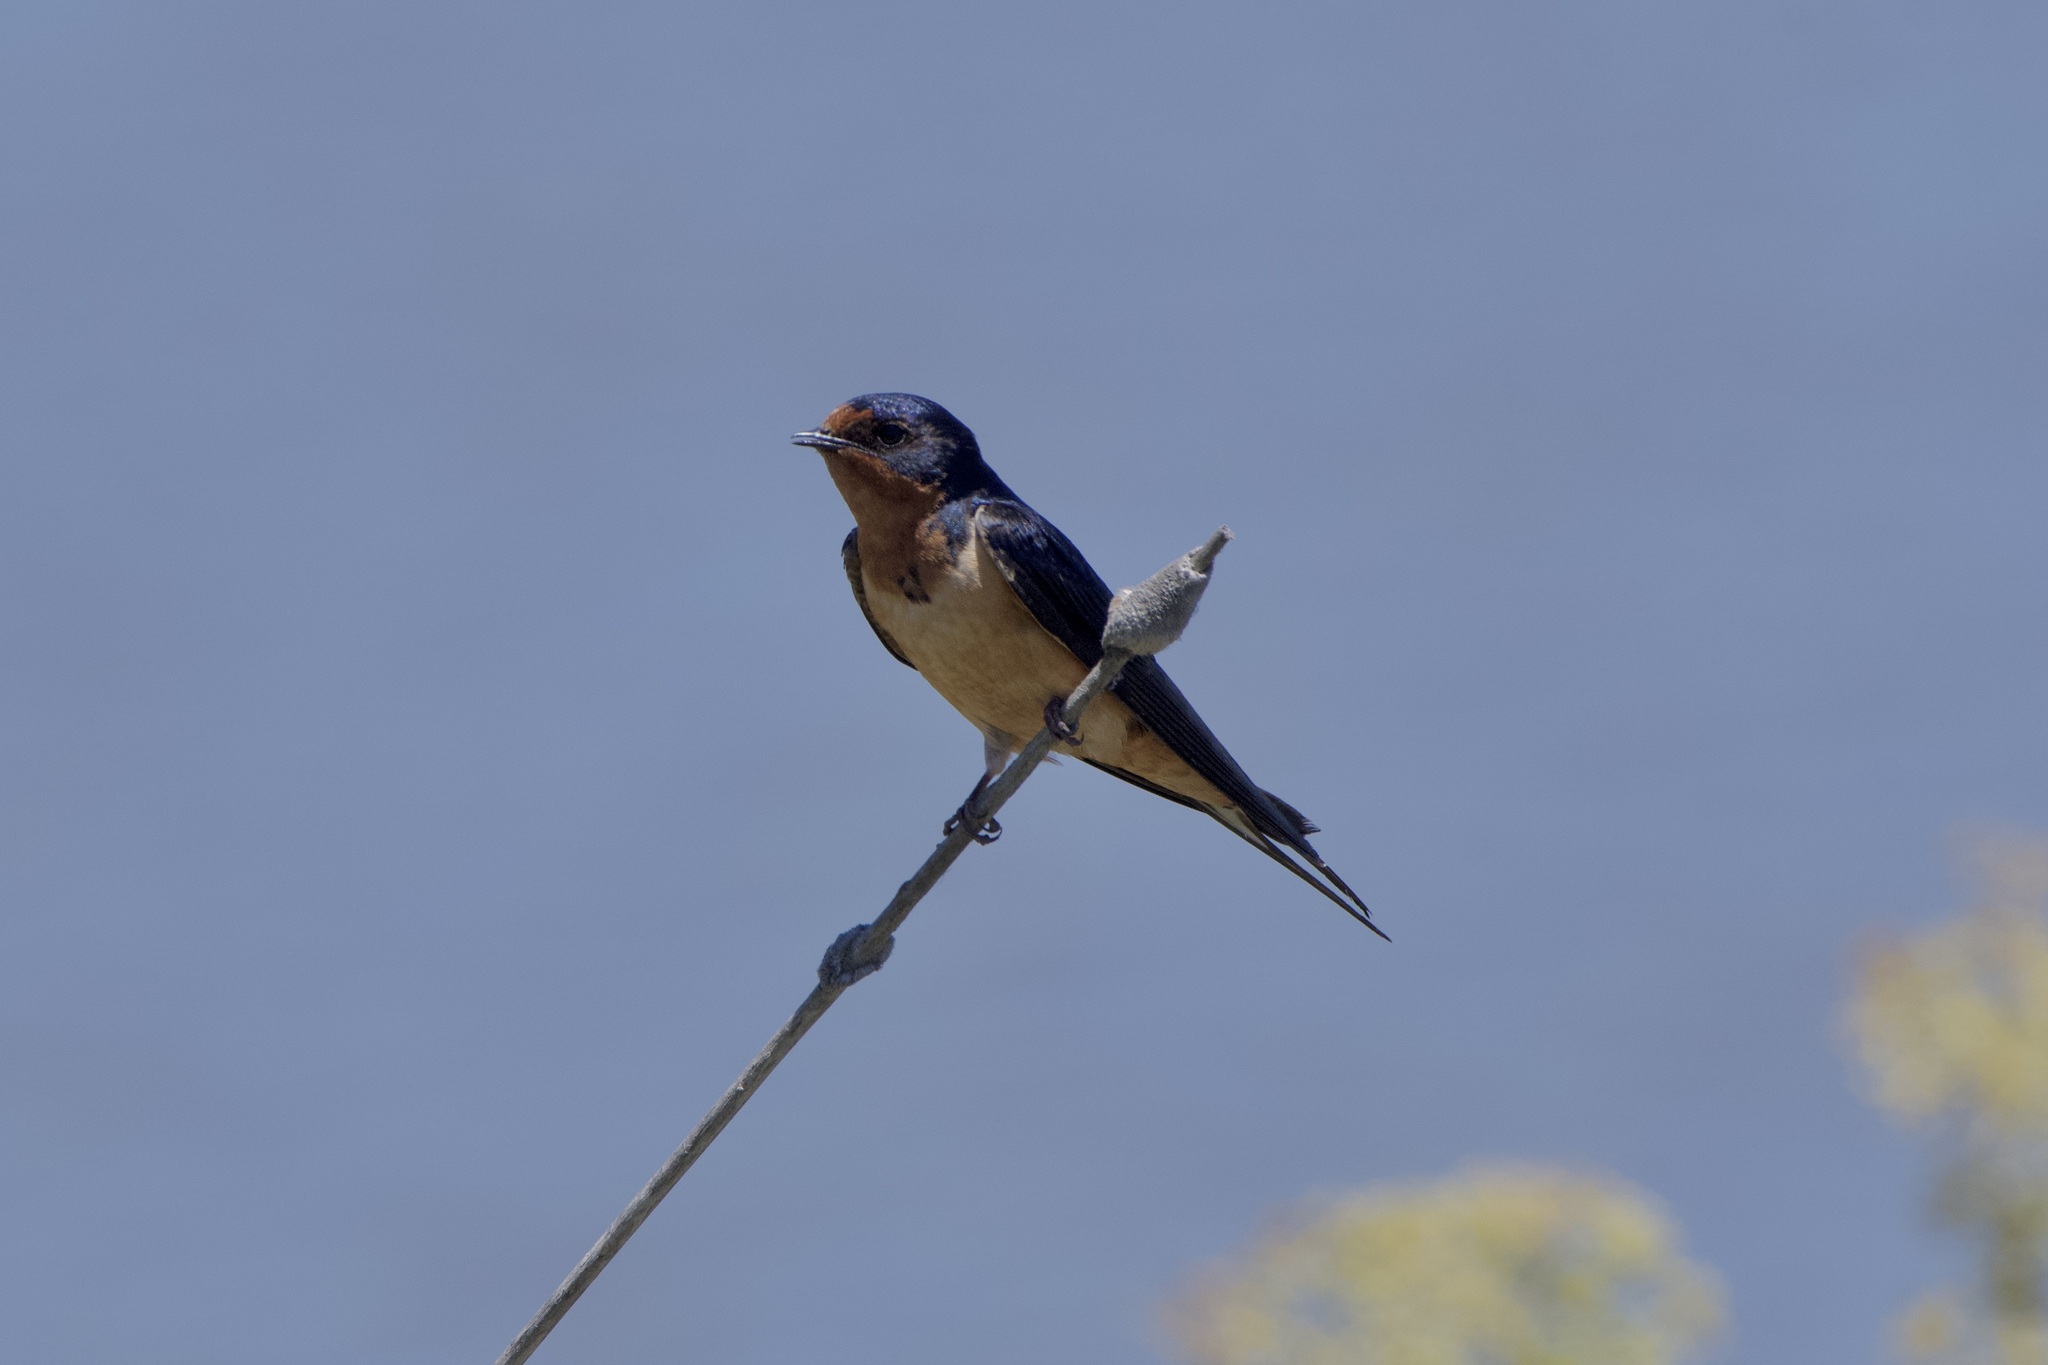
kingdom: Animalia
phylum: Chordata
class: Aves
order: Passeriformes
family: Hirundinidae
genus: Hirundo
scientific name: Hirundo rustica
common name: Barn swallow
